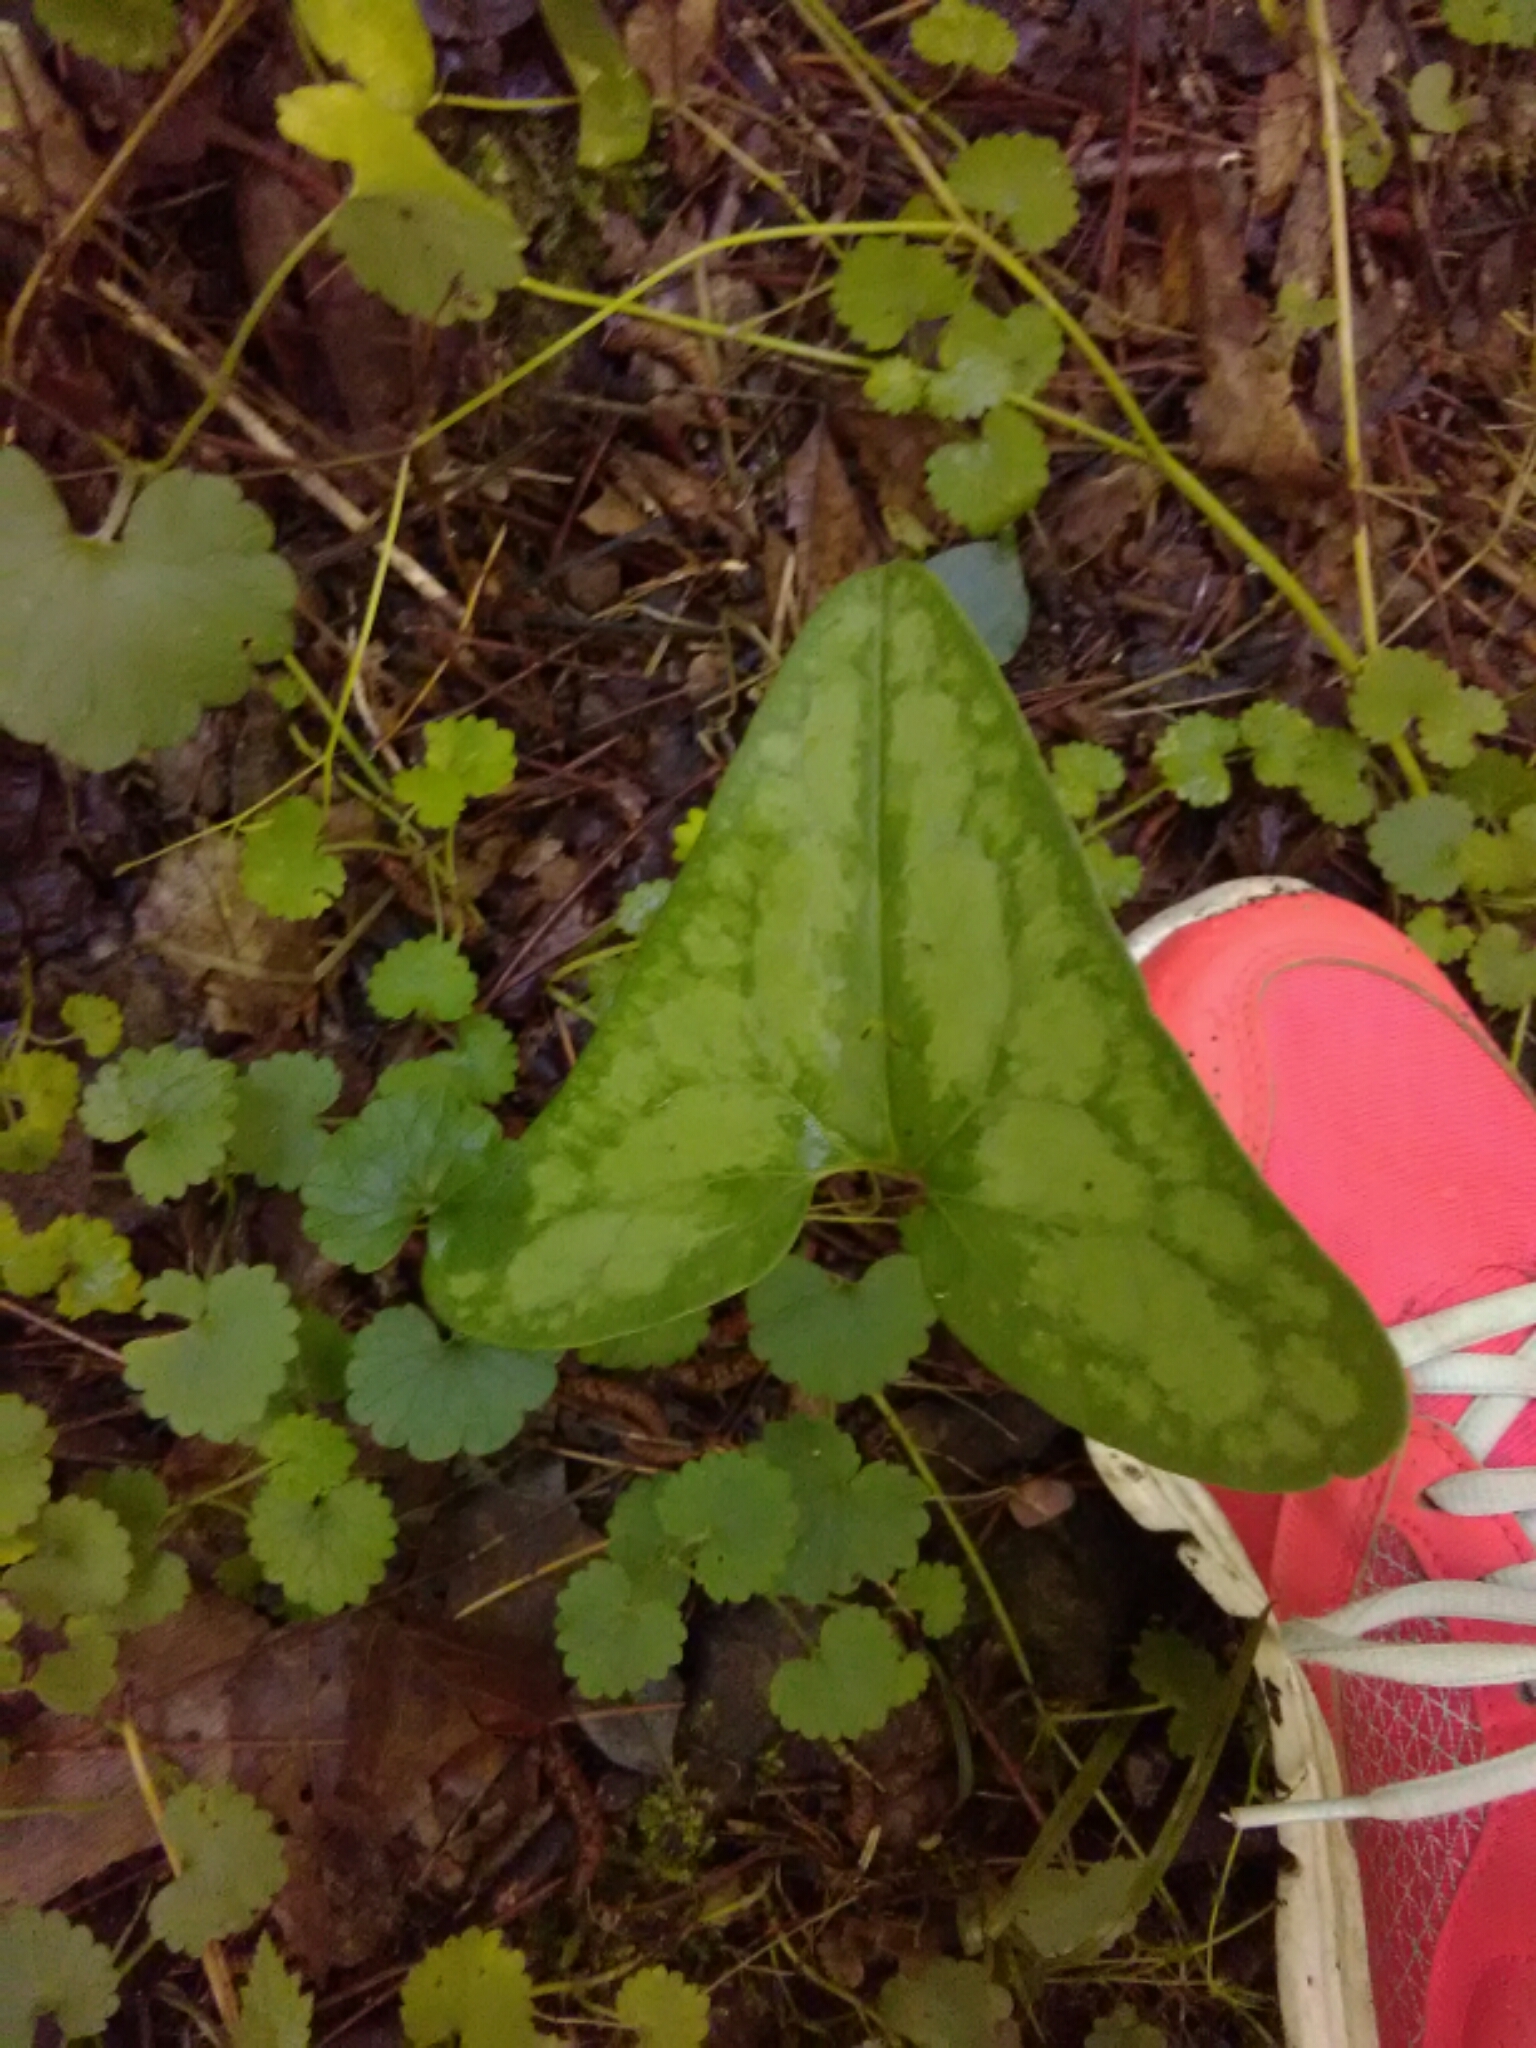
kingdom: Plantae
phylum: Tracheophyta
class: Magnoliopsida
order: Piperales
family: Aristolochiaceae
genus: Hexastylis
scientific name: Hexastylis arifolia
